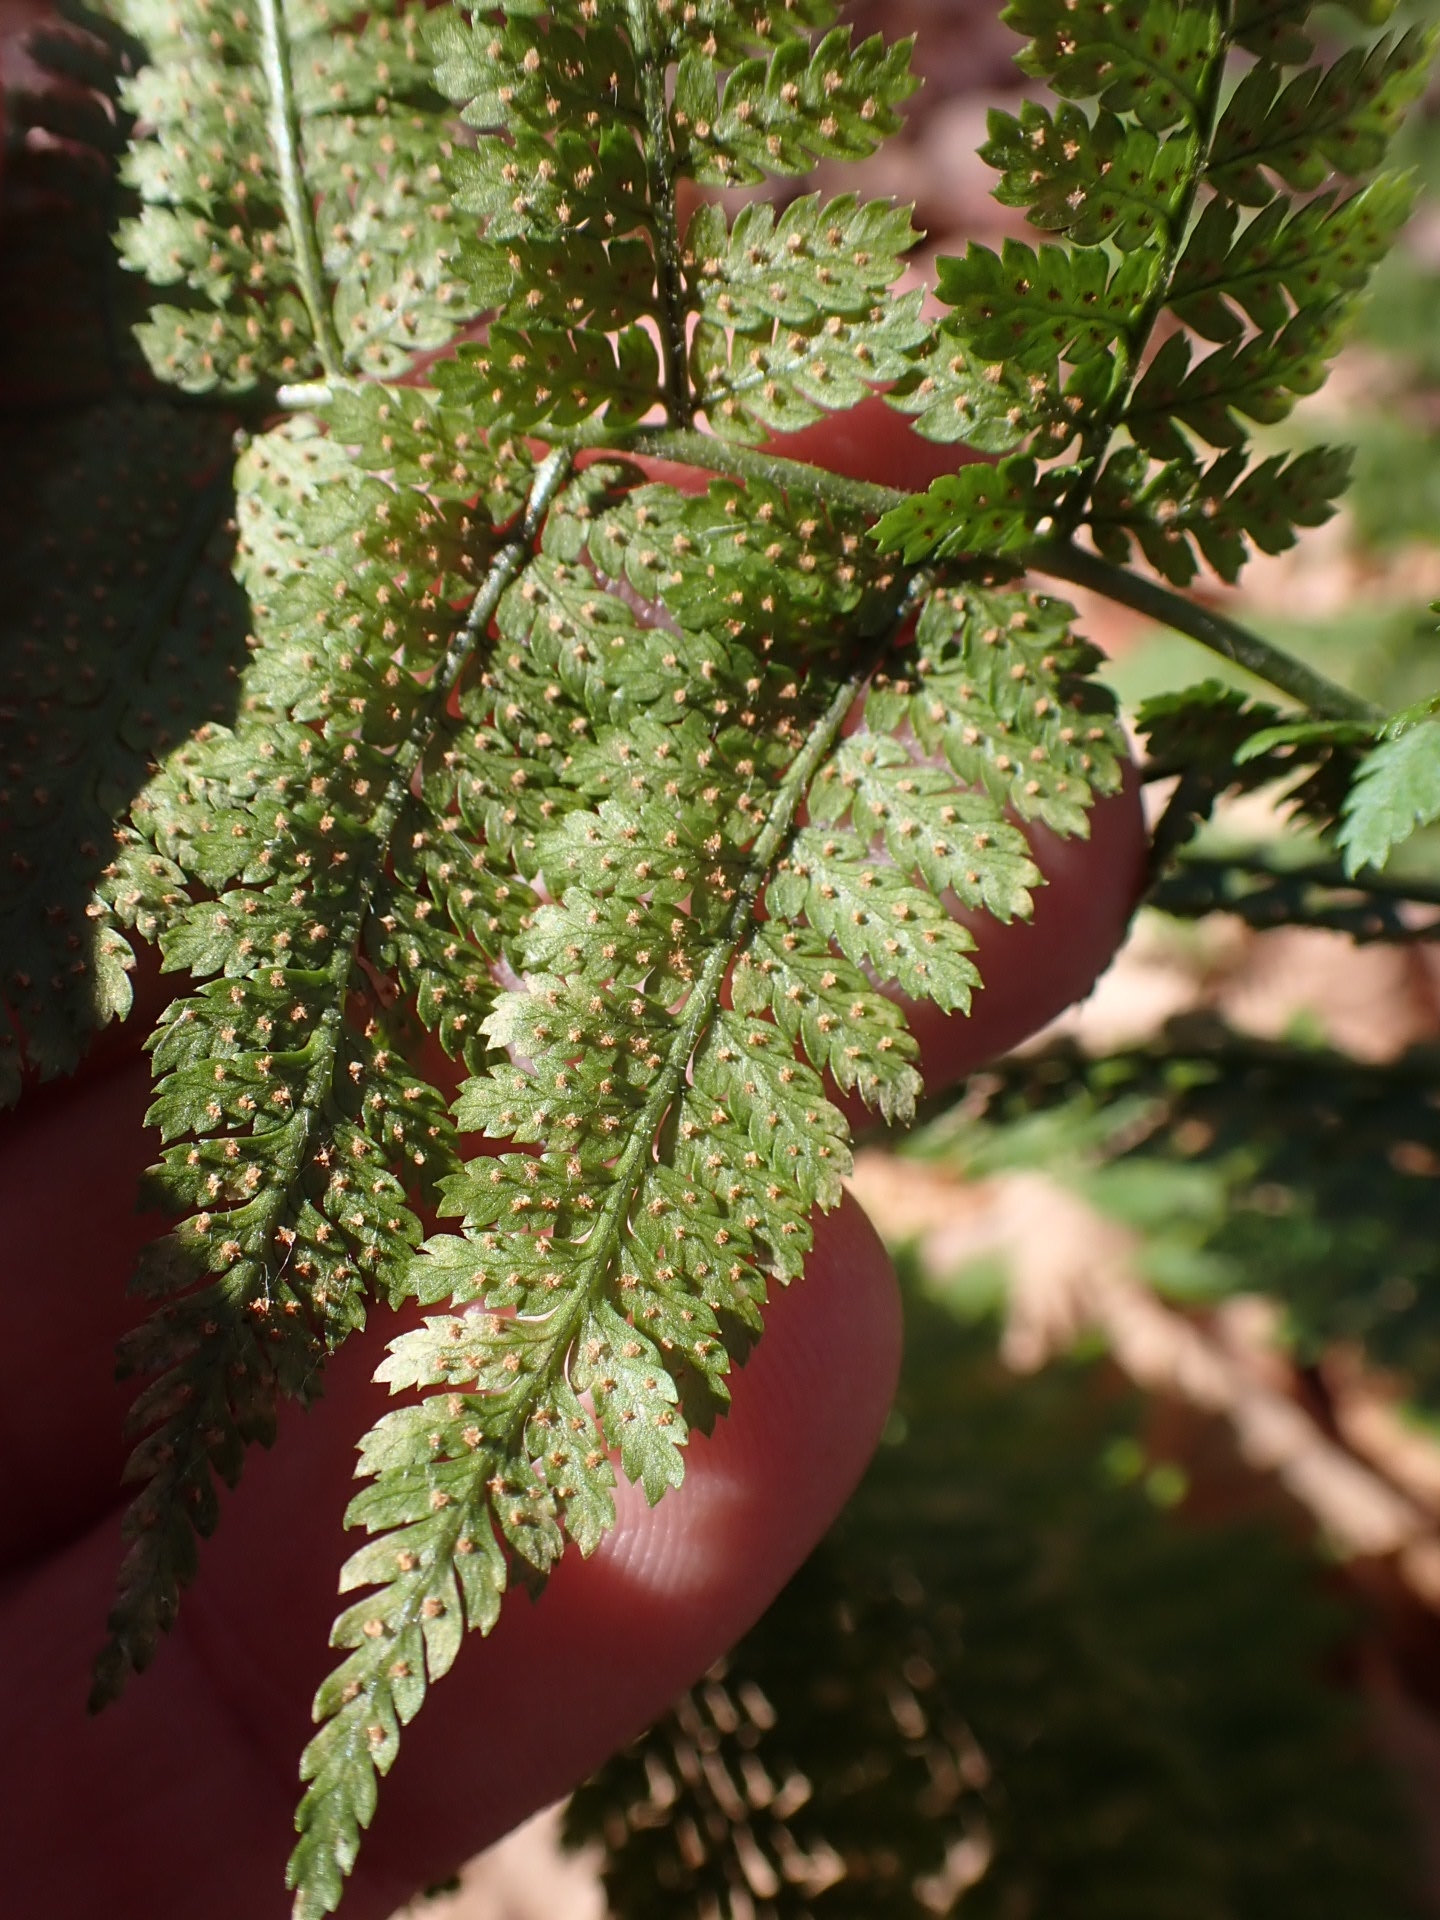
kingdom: Plantae
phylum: Tracheophyta
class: Polypodiopsida
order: Polypodiales
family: Dryopteridaceae
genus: Dryopteris
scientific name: Dryopteris intermedia
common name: Evergreen wood fern
